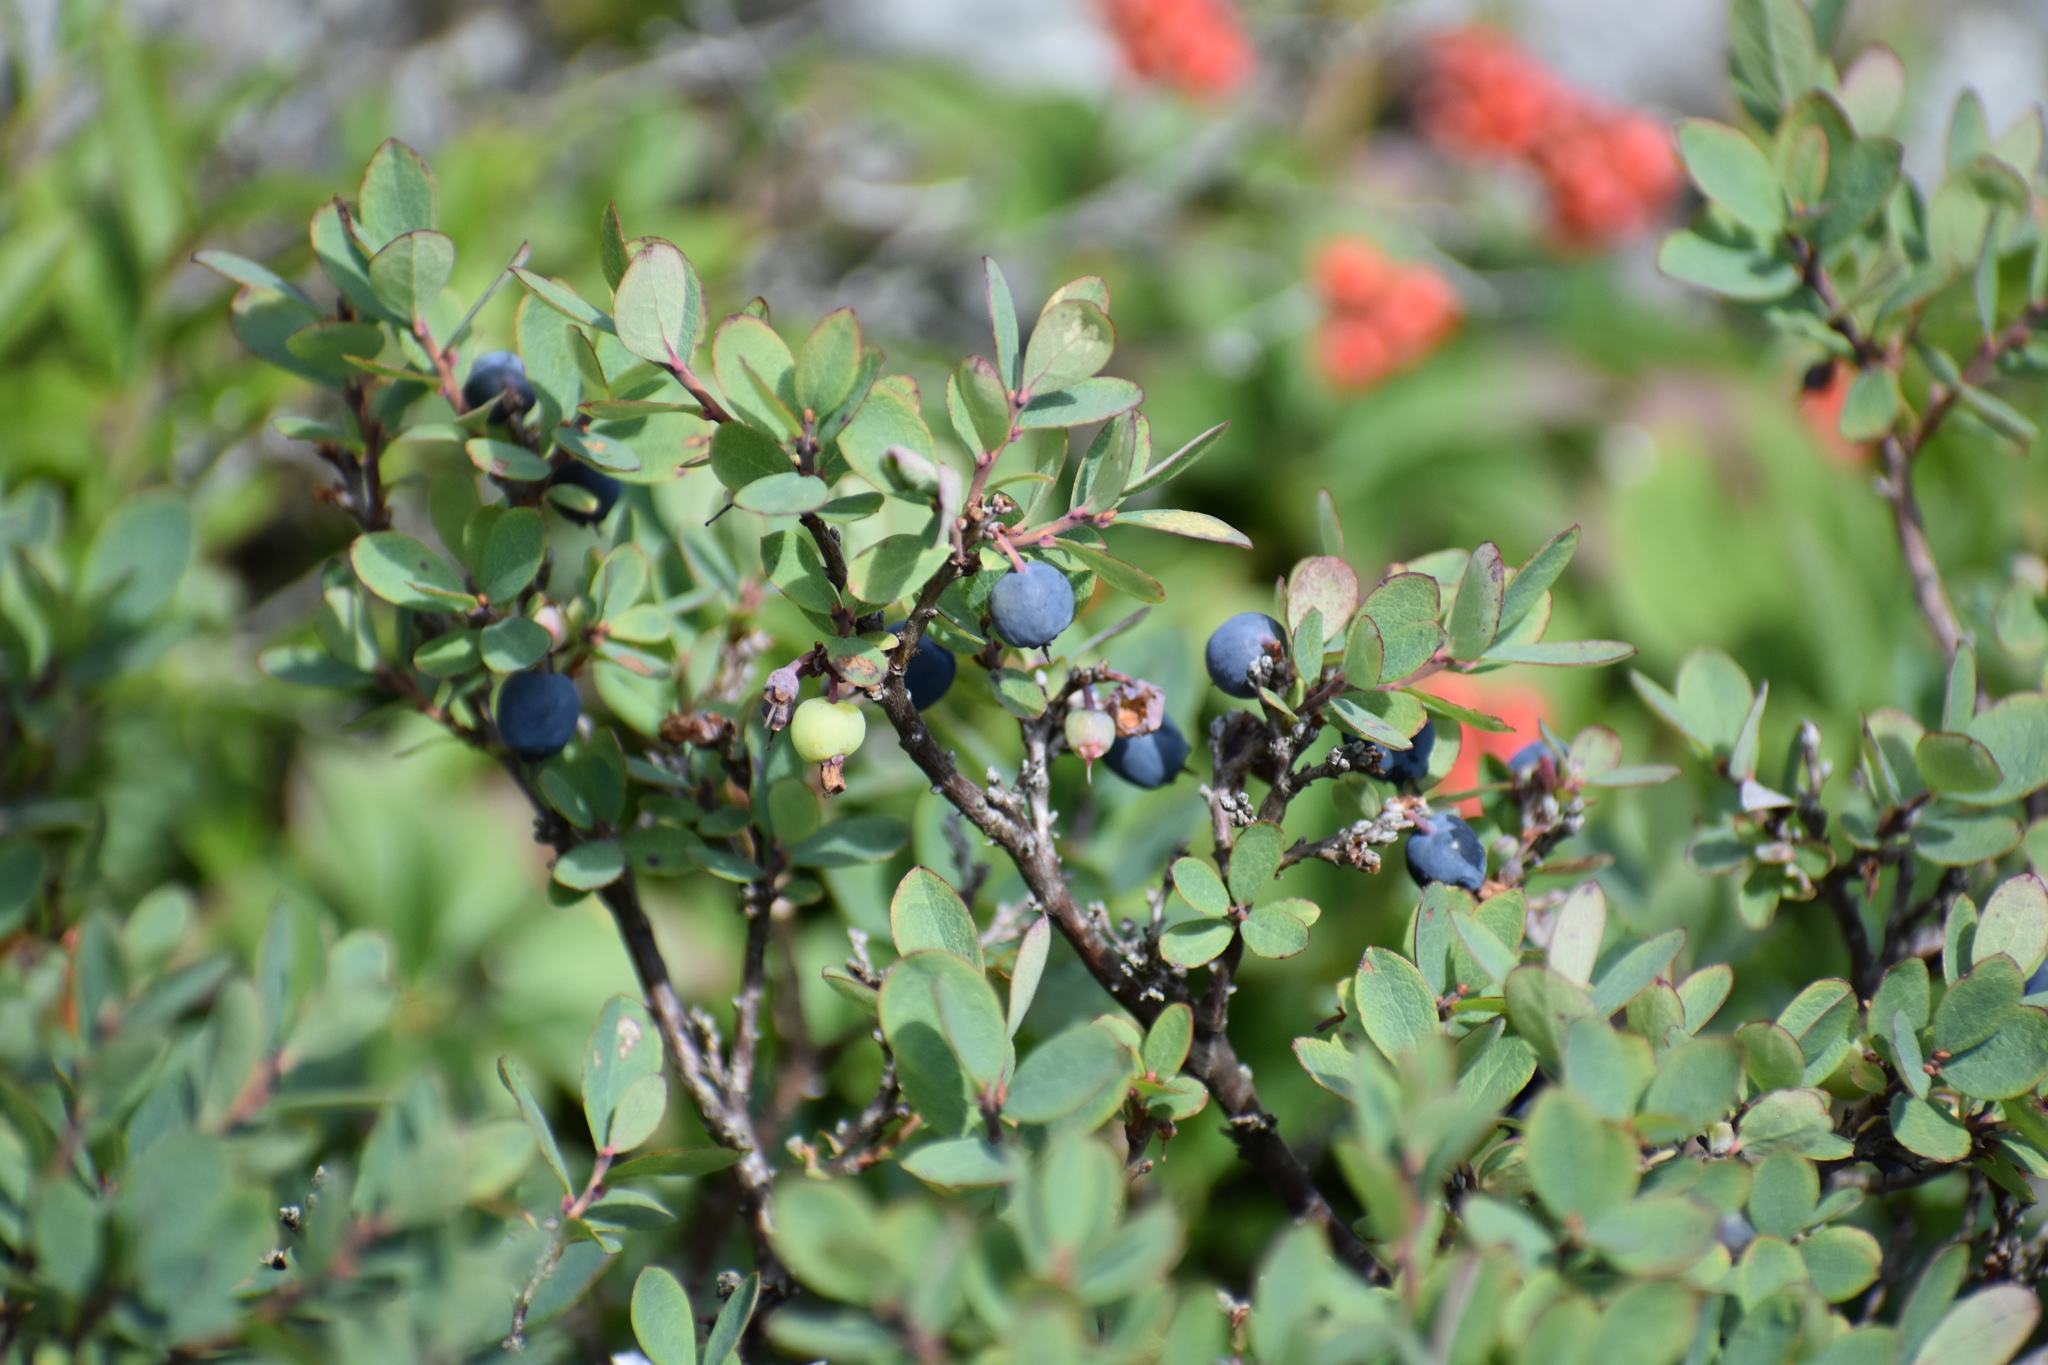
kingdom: Plantae
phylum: Tracheophyta
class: Magnoliopsida
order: Ericales
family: Ericaceae
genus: Vaccinium
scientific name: Vaccinium uliginosum
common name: Bog bilberry
